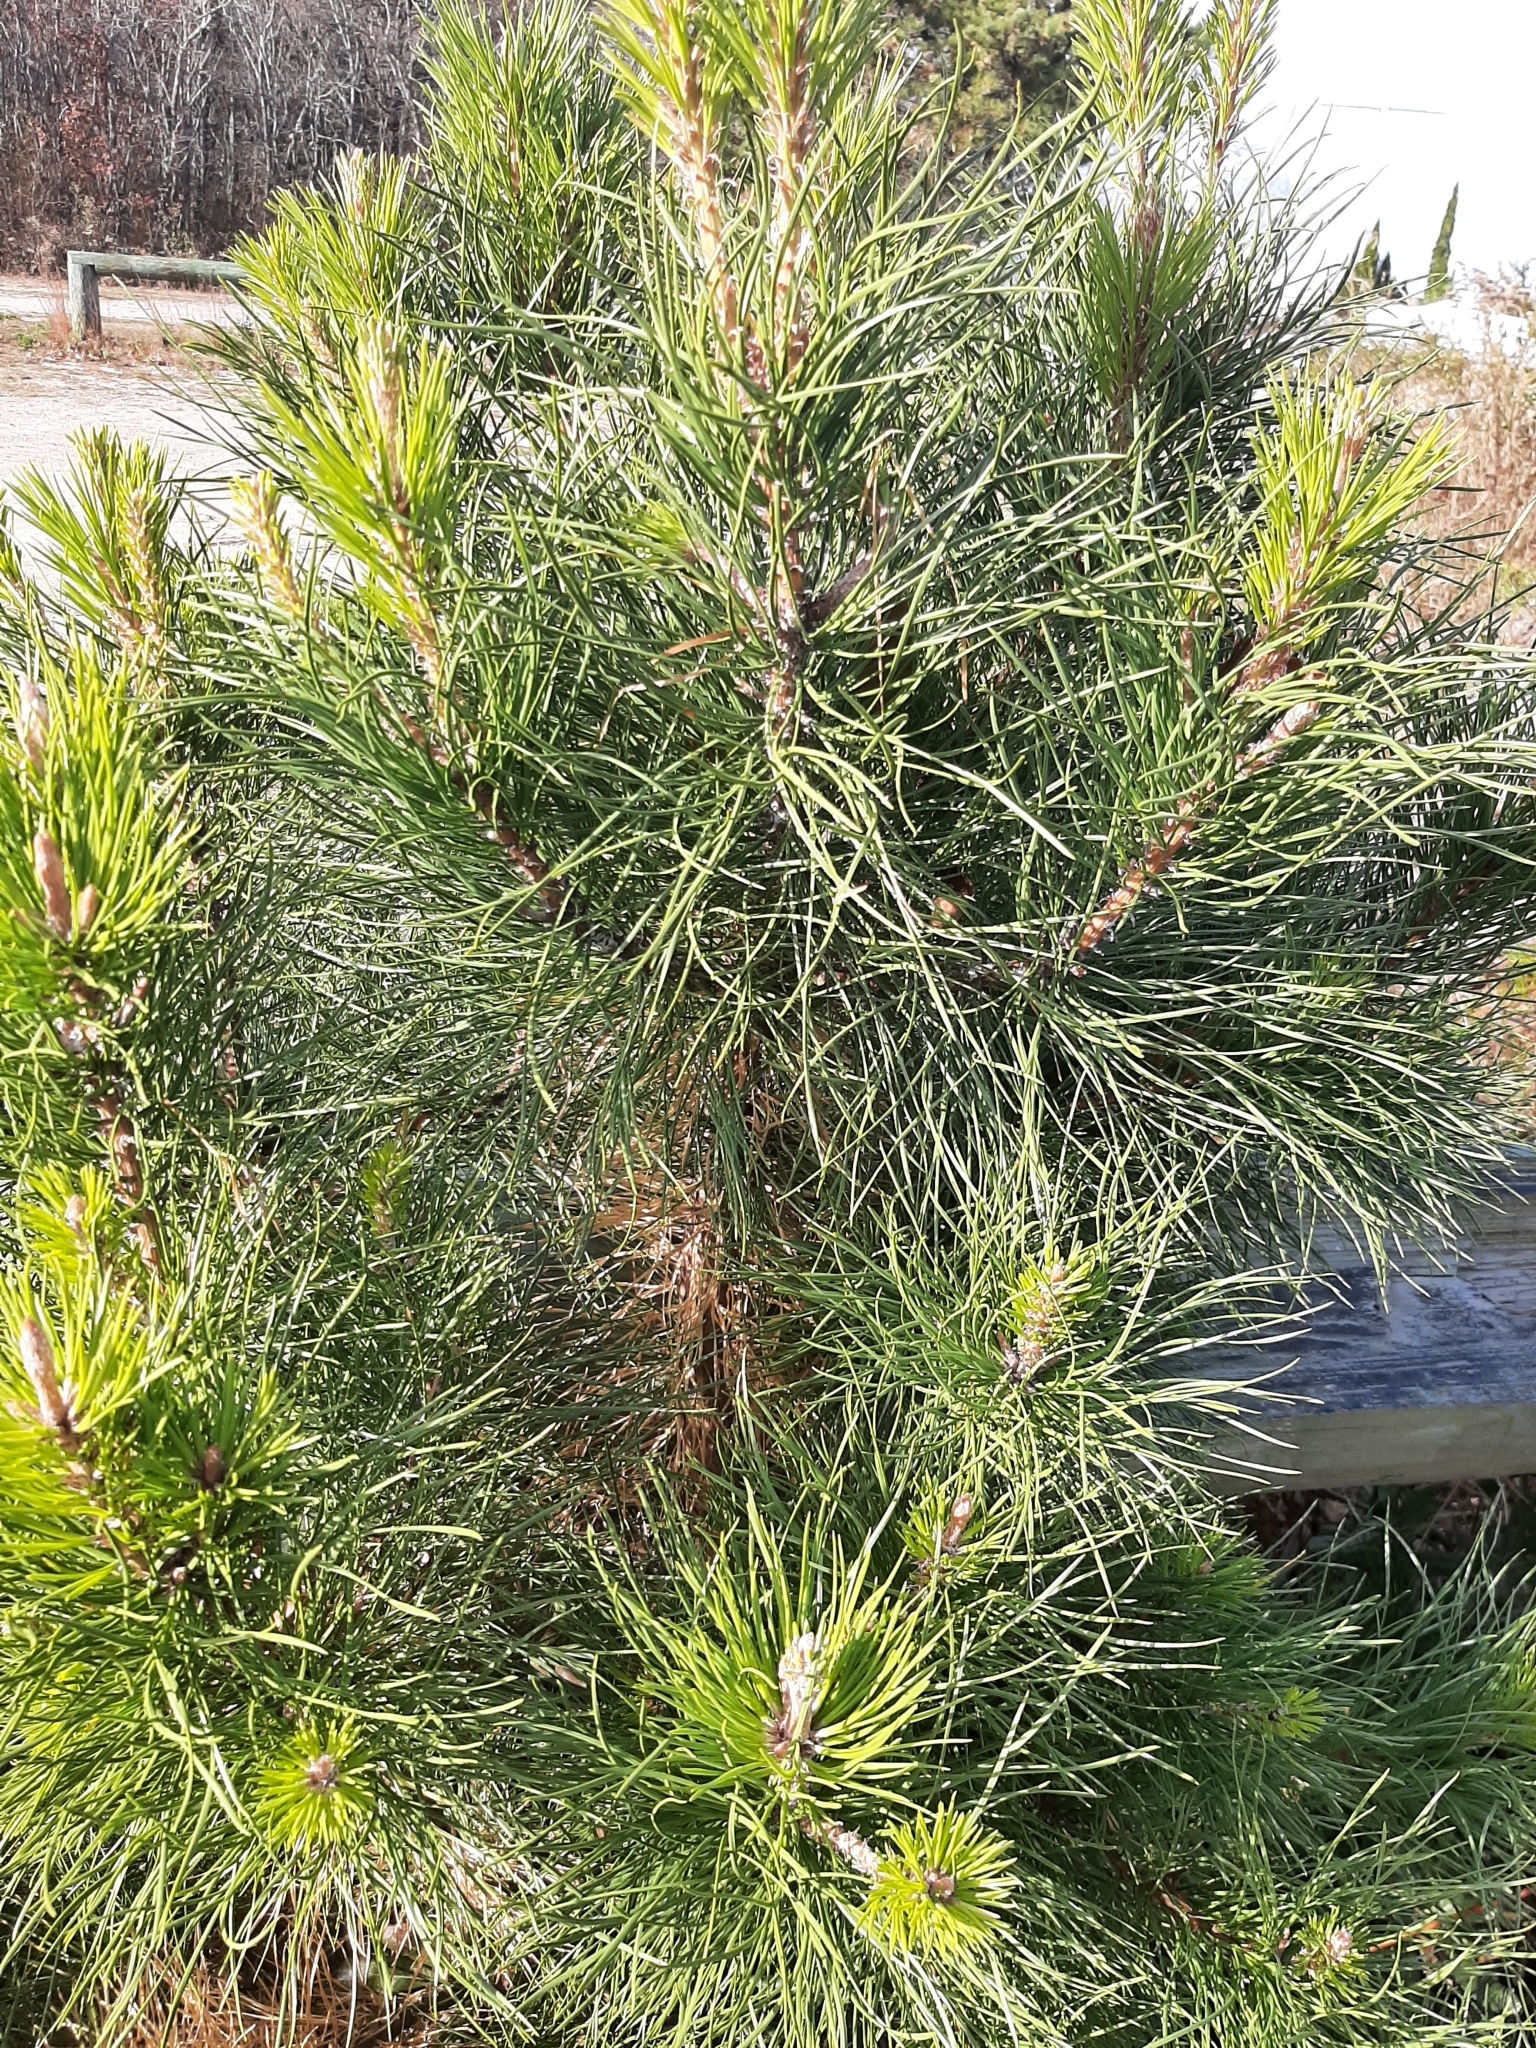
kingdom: Plantae
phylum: Tracheophyta
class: Pinopsida
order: Pinales
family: Pinaceae
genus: Pinus
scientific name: Pinus rigida
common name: Pitch pine
